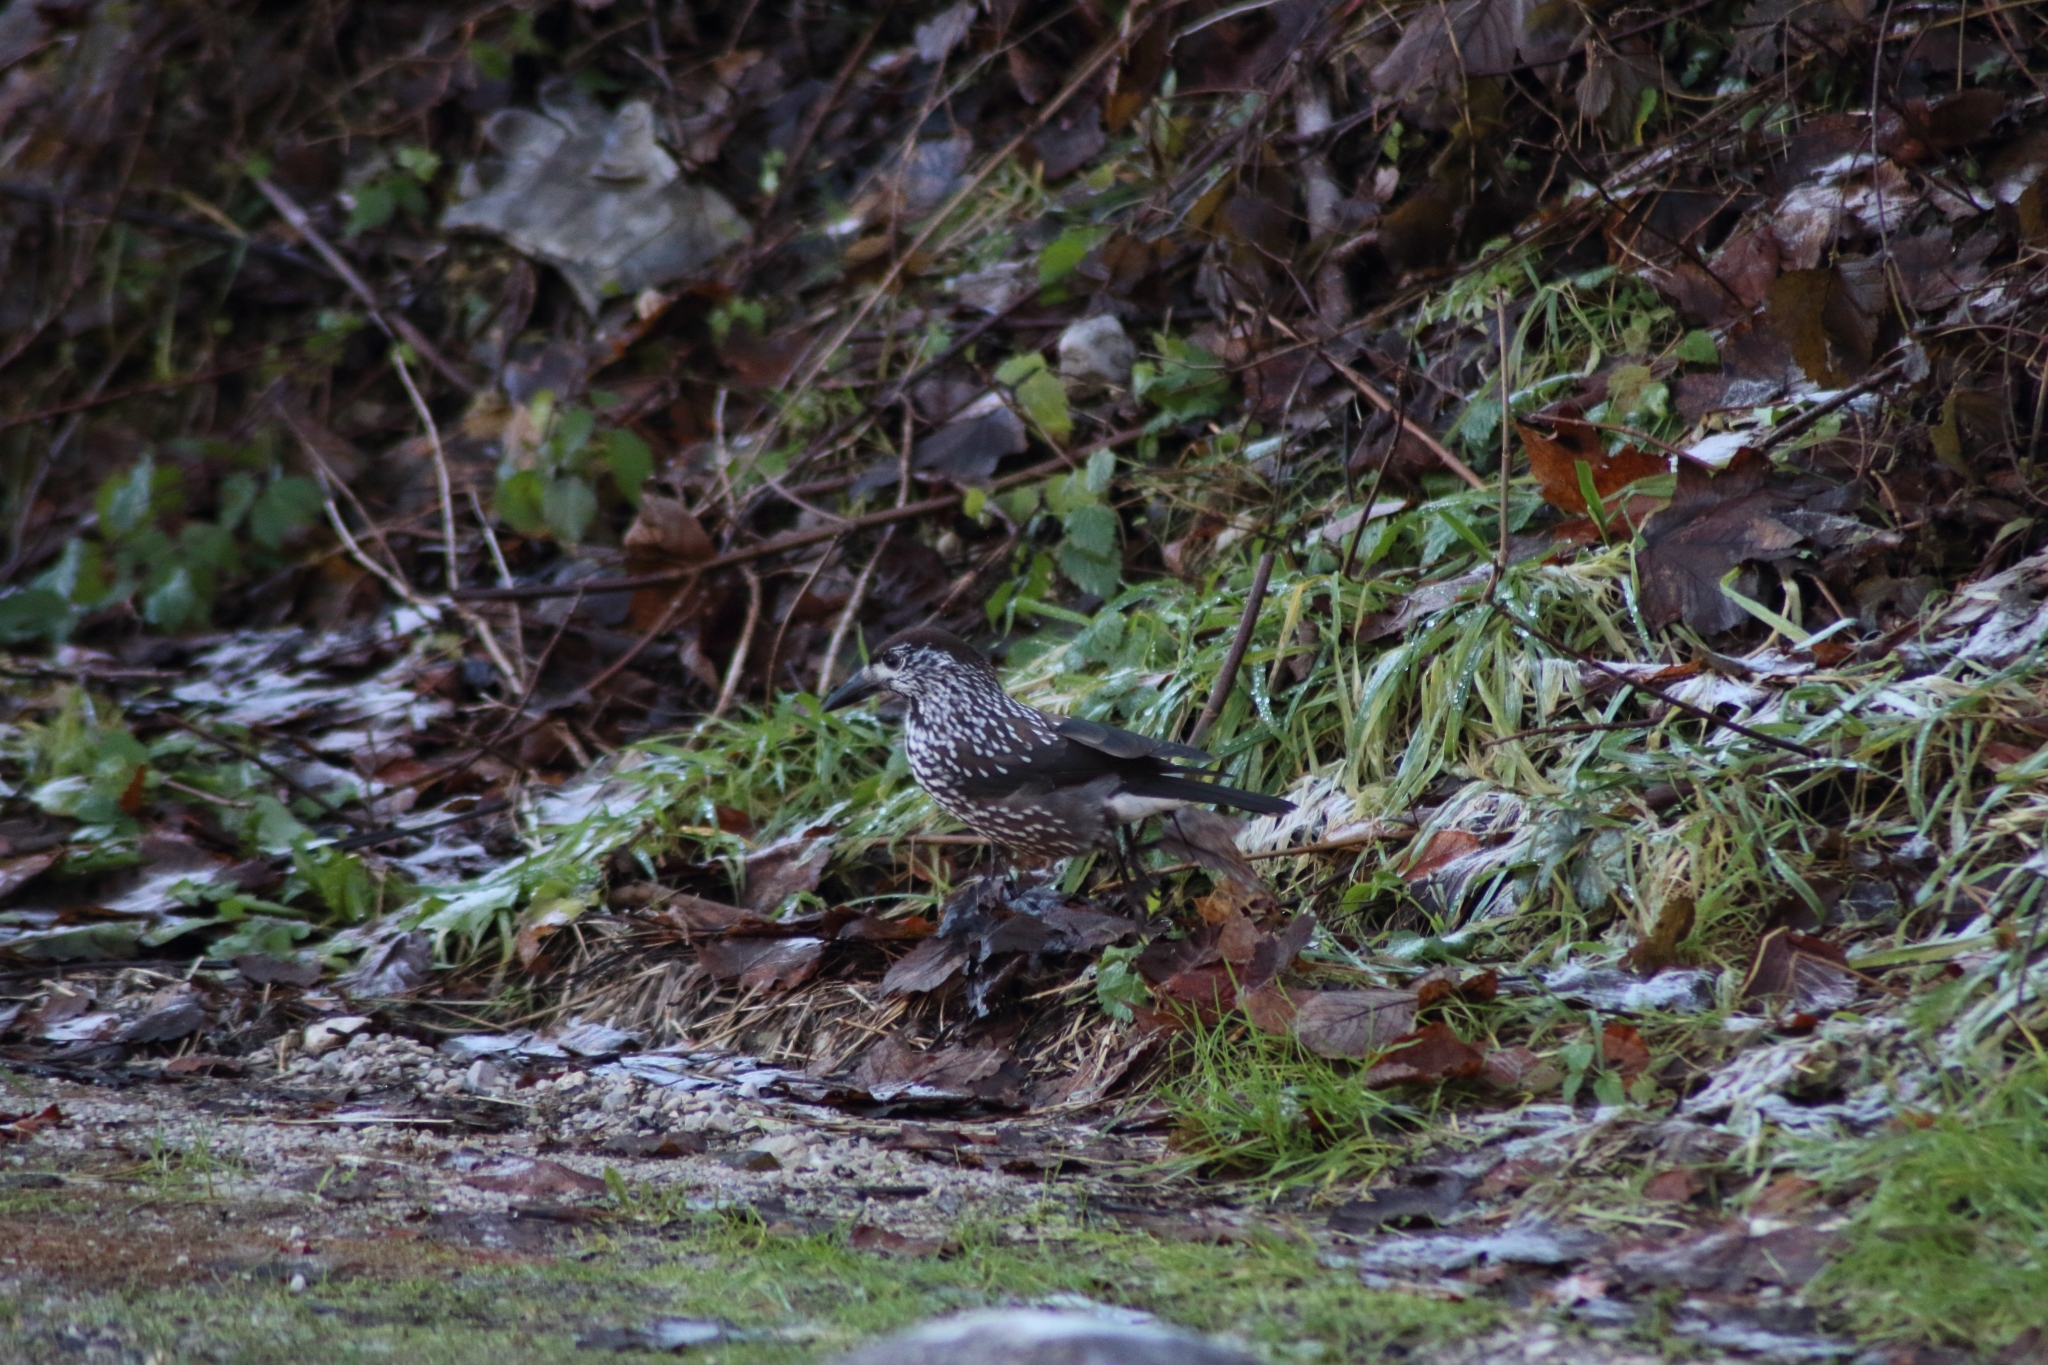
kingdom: Animalia
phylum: Chordata
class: Aves
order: Passeriformes
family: Corvidae
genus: Nucifraga
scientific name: Nucifraga caryocatactes
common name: Spotted nutcracker
